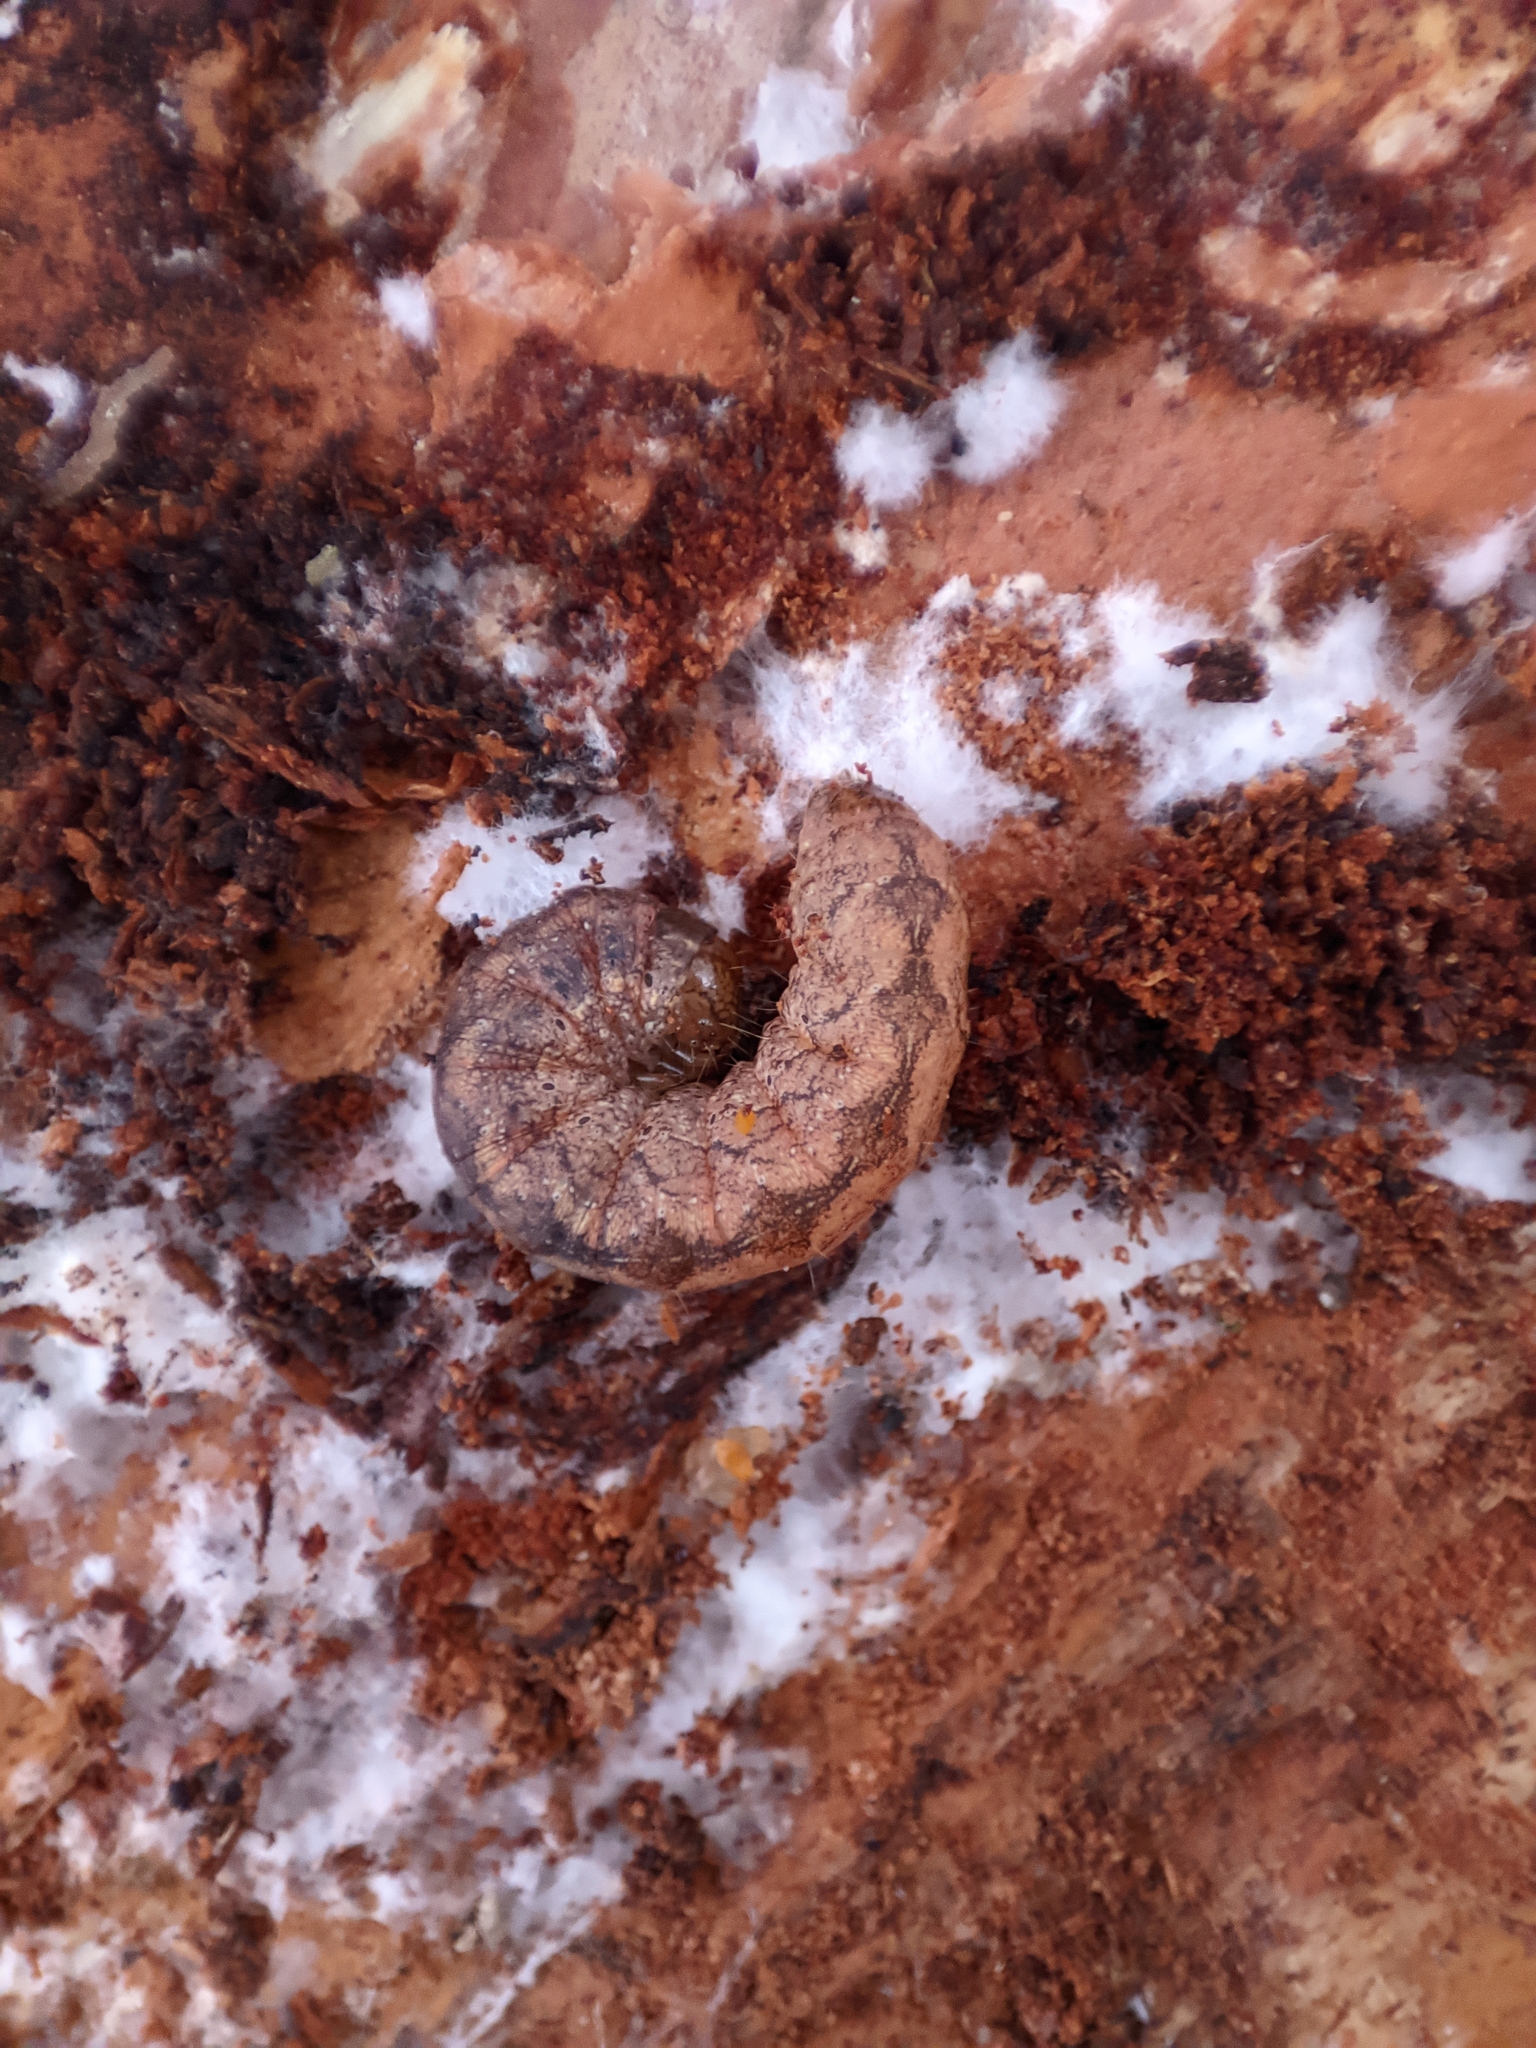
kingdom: Animalia
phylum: Arthropoda
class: Insecta
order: Lepidoptera
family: Noctuidae
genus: Polia
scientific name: Polia nebulosa
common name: Grey arches
